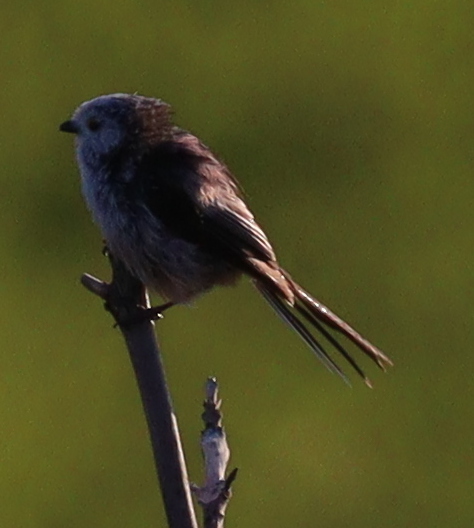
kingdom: Animalia
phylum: Chordata
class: Aves
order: Passeriformes
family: Aegithalidae
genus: Aegithalos
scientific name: Aegithalos caudatus
